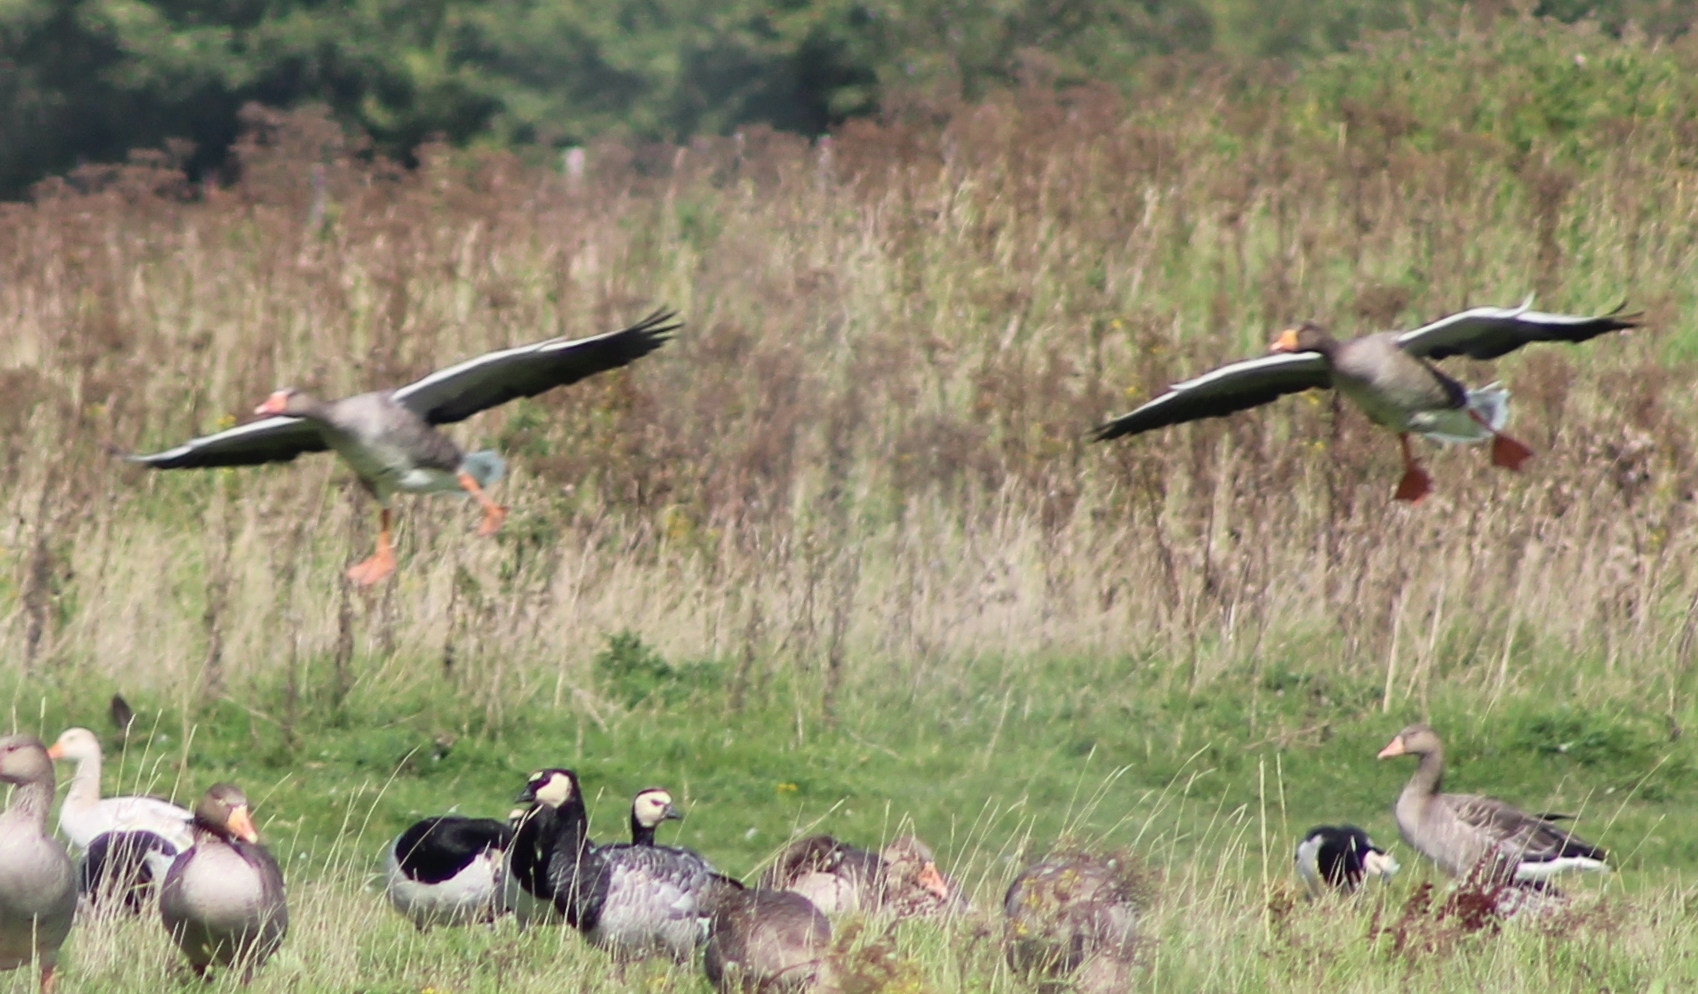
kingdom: Animalia
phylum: Chordata
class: Aves
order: Anseriformes
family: Anatidae
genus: Anser
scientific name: Anser anser
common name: Greylag goose
